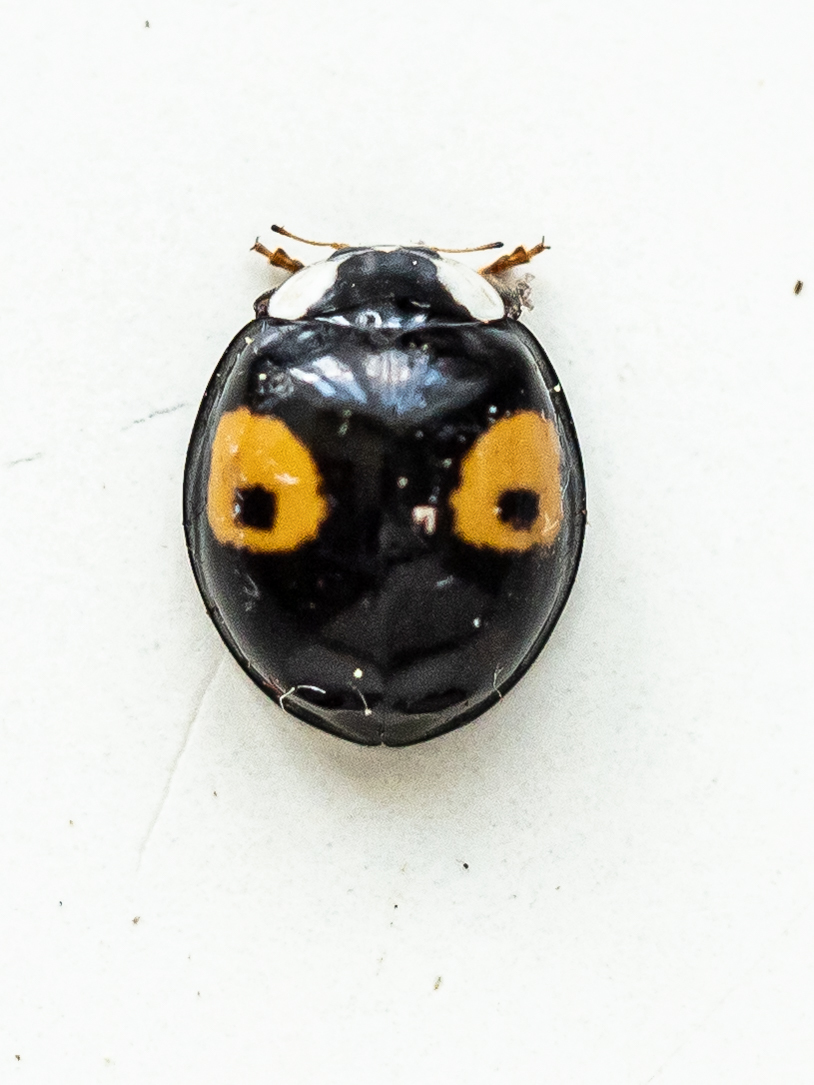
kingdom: Animalia
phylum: Arthropoda
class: Insecta
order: Coleoptera
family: Coccinellidae
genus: Harmonia
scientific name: Harmonia axyridis
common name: Harlequin ladybird
